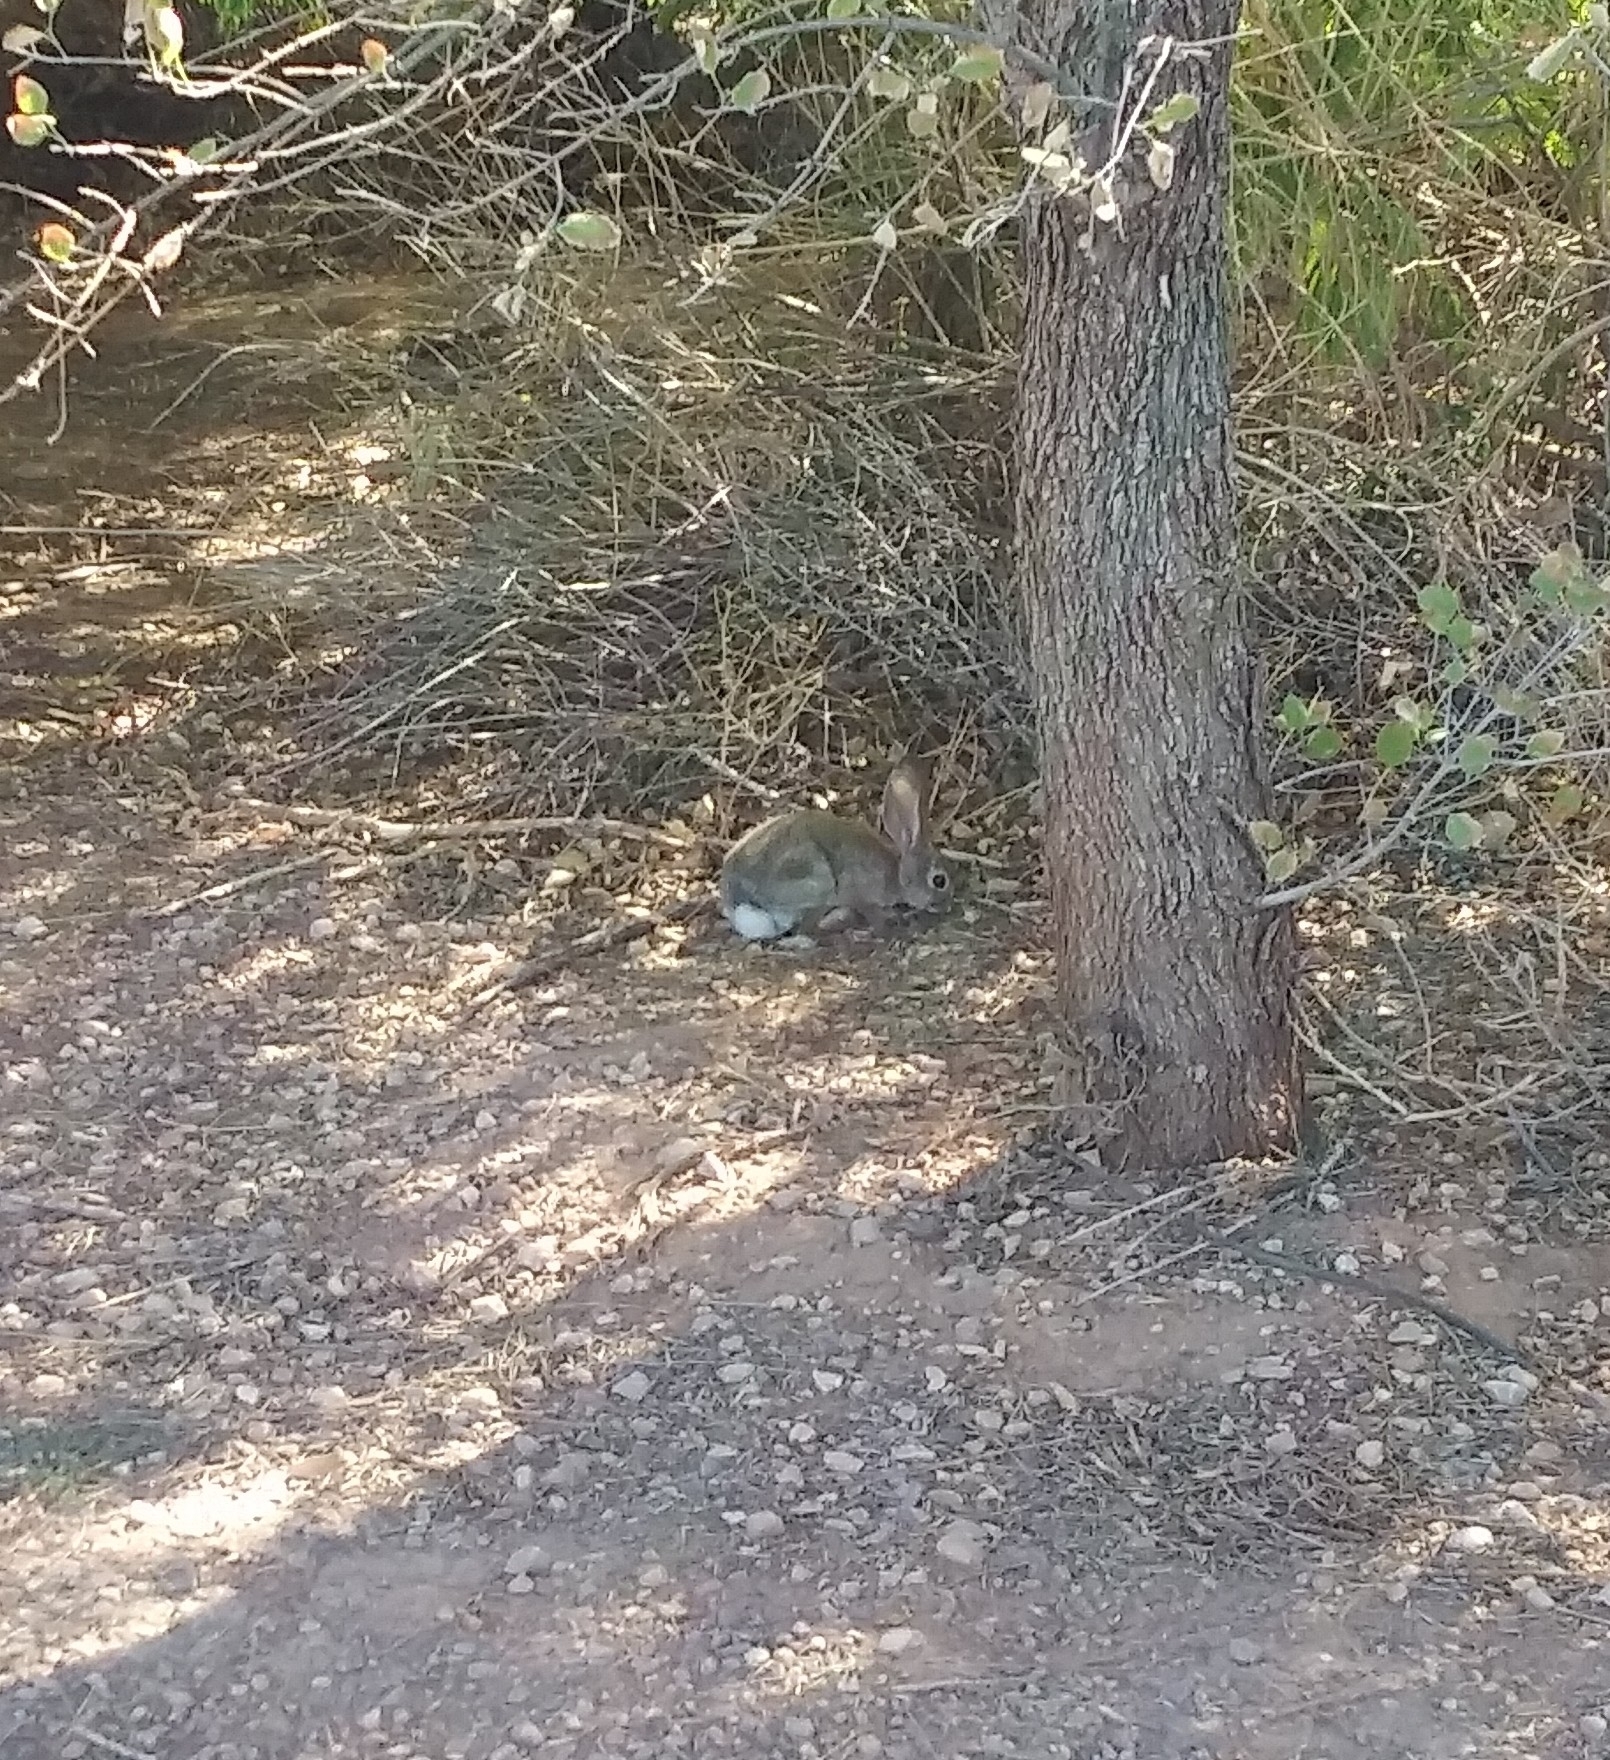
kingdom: Animalia
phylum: Chordata
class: Mammalia
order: Lagomorpha
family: Leporidae
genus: Sylvilagus
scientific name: Sylvilagus audubonii
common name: Desert cottontail
